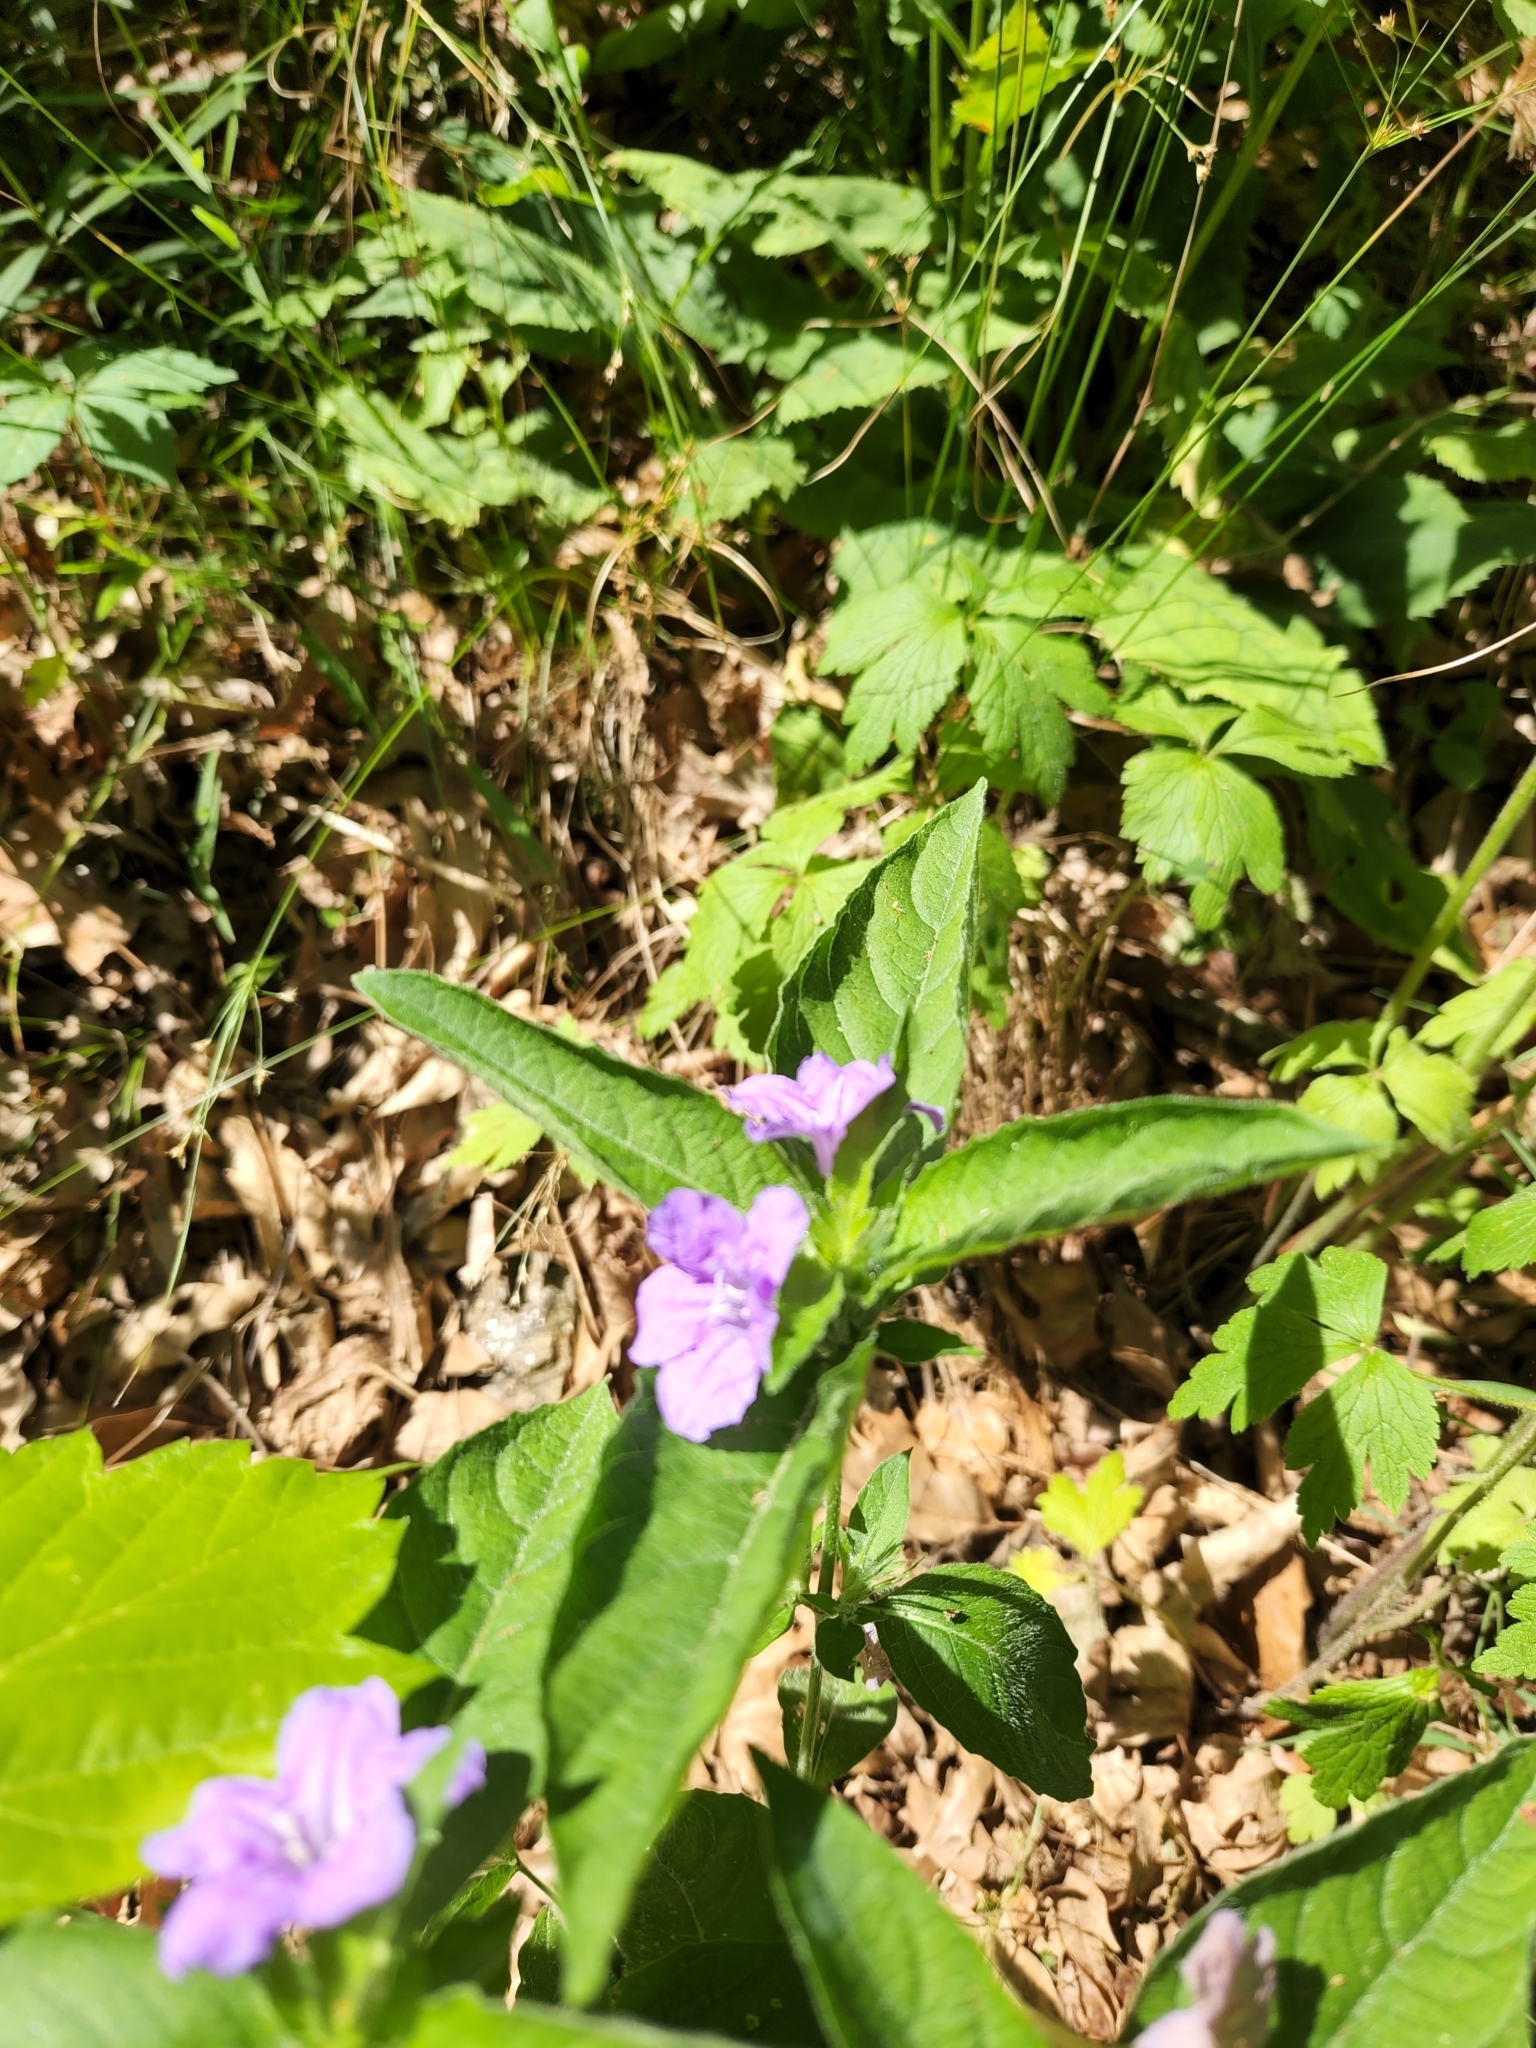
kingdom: Plantae
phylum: Tracheophyta
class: Magnoliopsida
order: Lamiales
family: Acanthaceae
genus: Ruellia
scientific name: Ruellia caroliniensis
